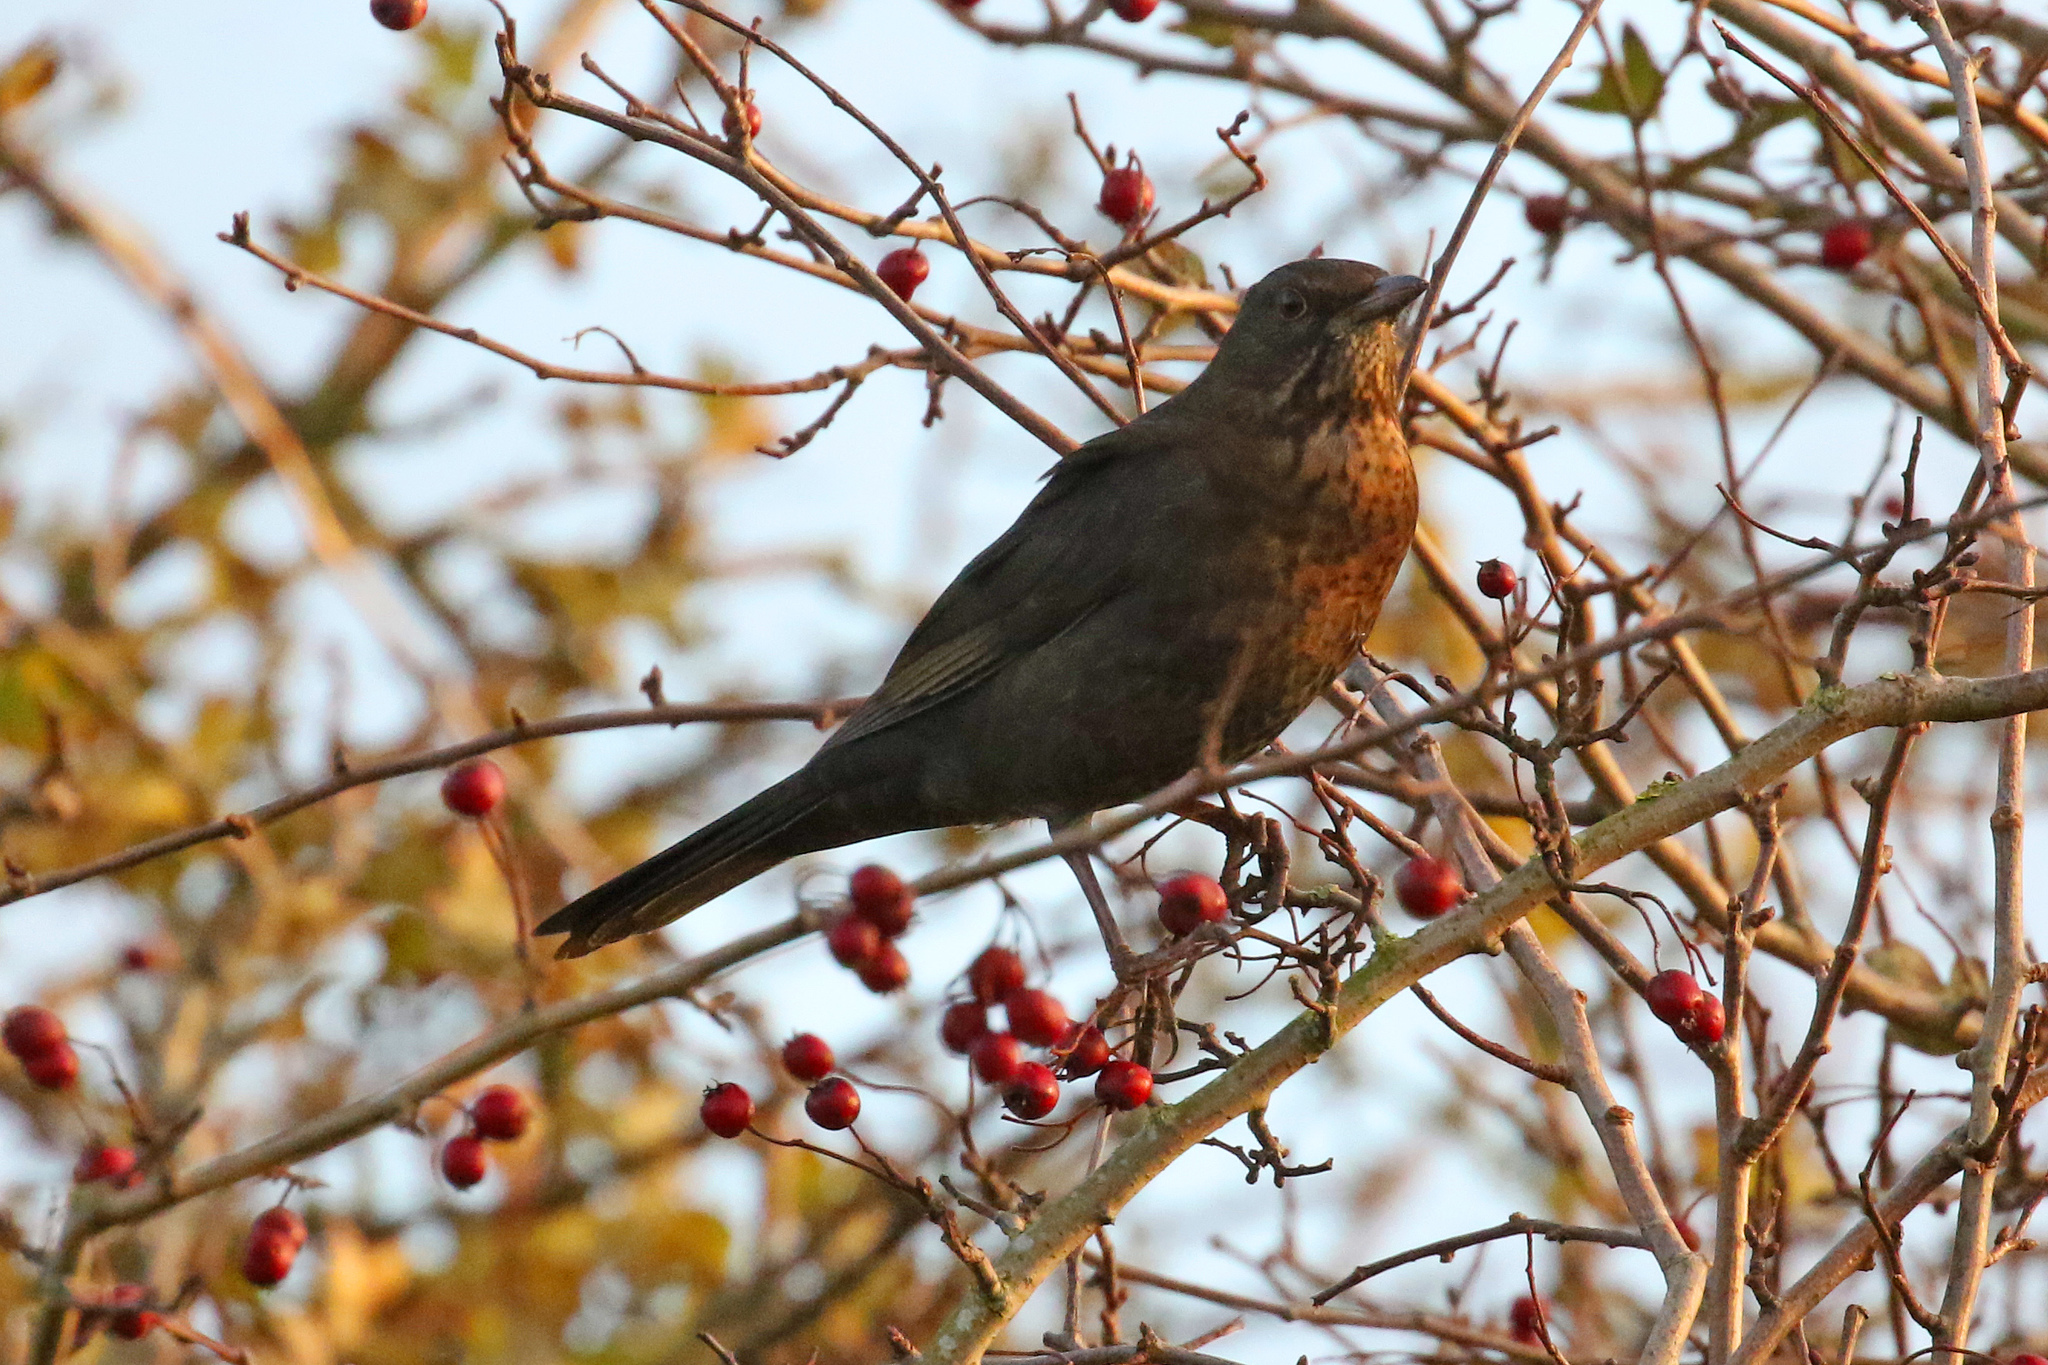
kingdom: Animalia
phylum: Chordata
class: Aves
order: Passeriformes
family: Turdidae
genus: Turdus
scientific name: Turdus merula
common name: Common blackbird
